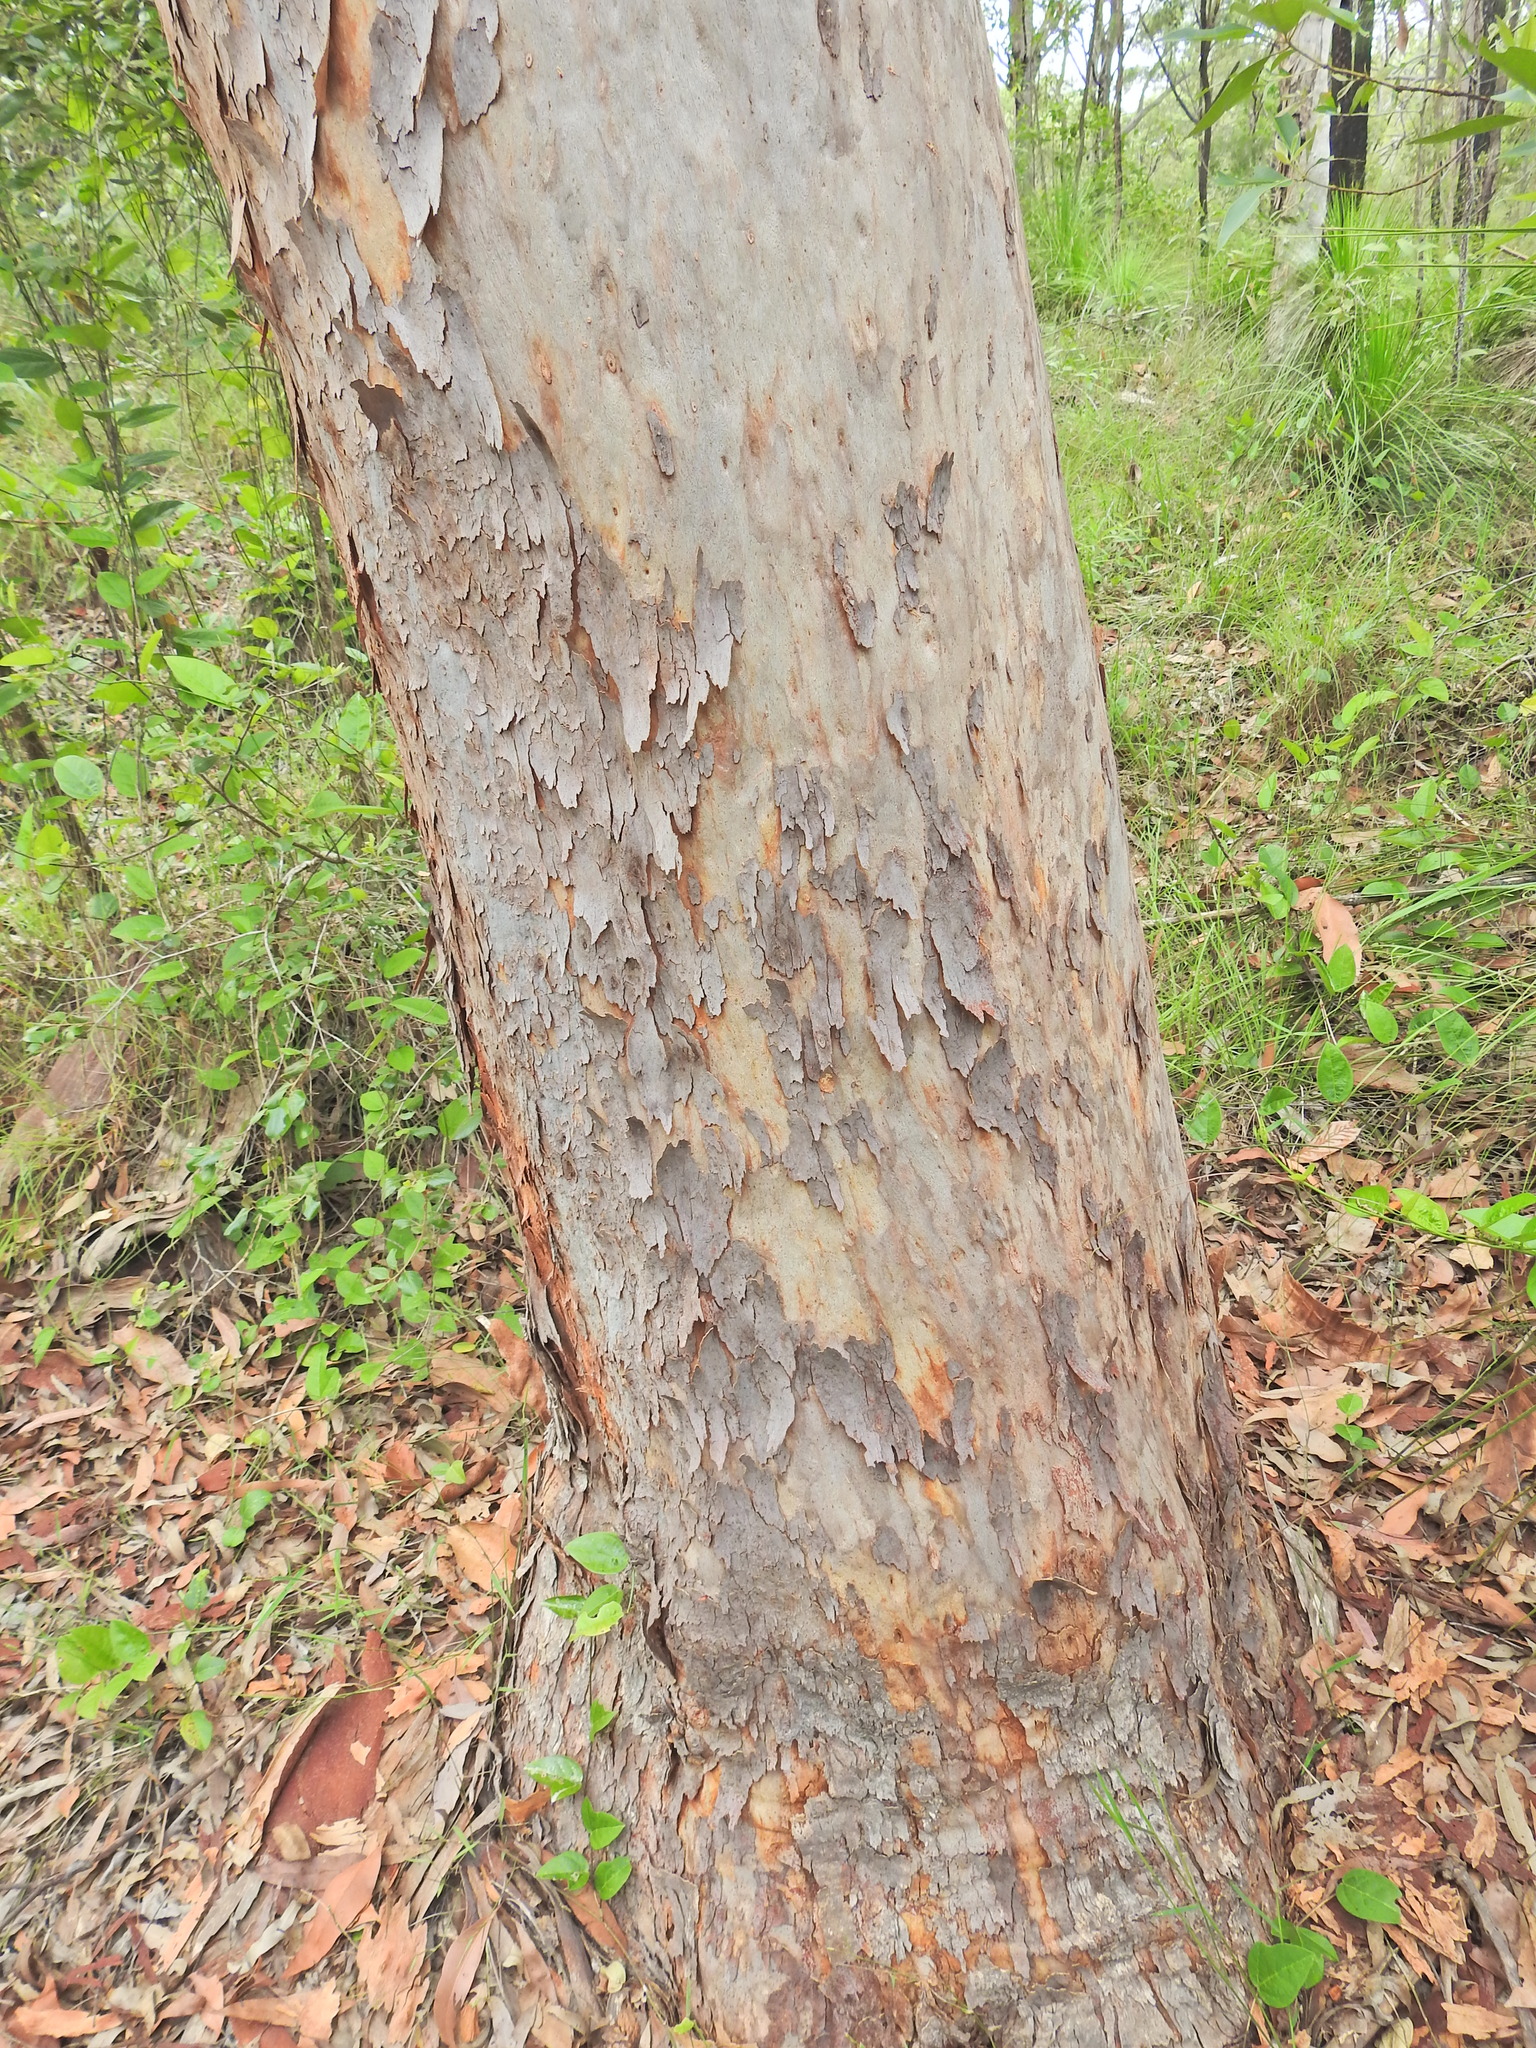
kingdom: Plantae
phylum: Tracheophyta
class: Magnoliopsida
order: Myrtales
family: Myrtaceae
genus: Angophora
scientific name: Angophora leiocarpa
